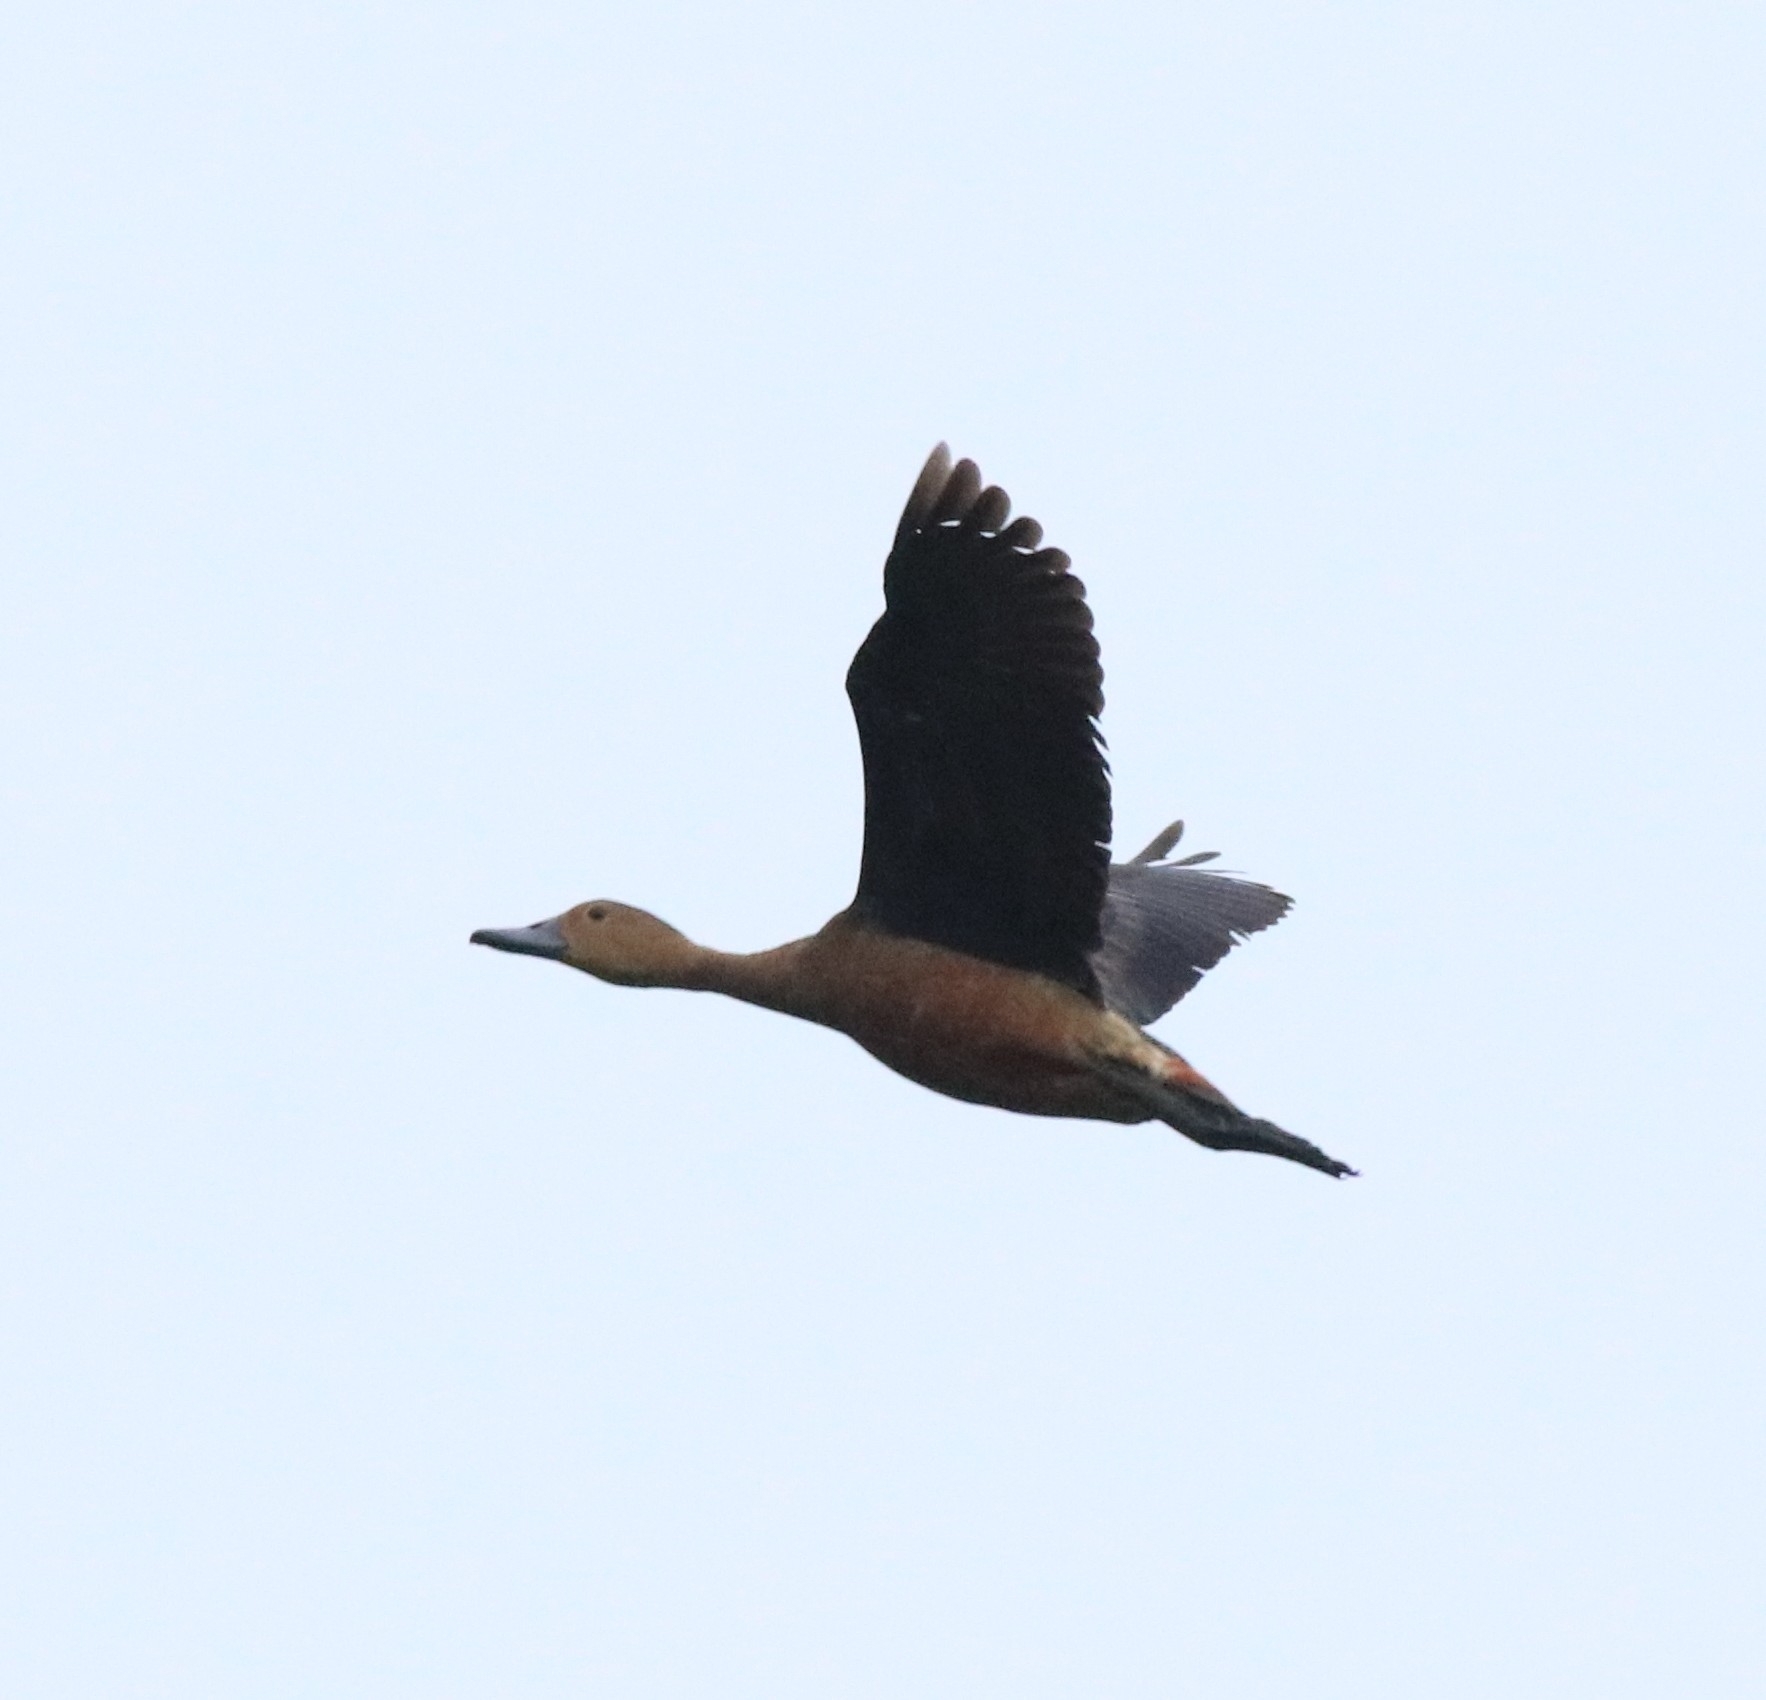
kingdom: Animalia
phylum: Chordata
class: Aves
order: Anseriformes
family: Anatidae
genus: Dendrocygna
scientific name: Dendrocygna javanica
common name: Lesser whistling-duck
